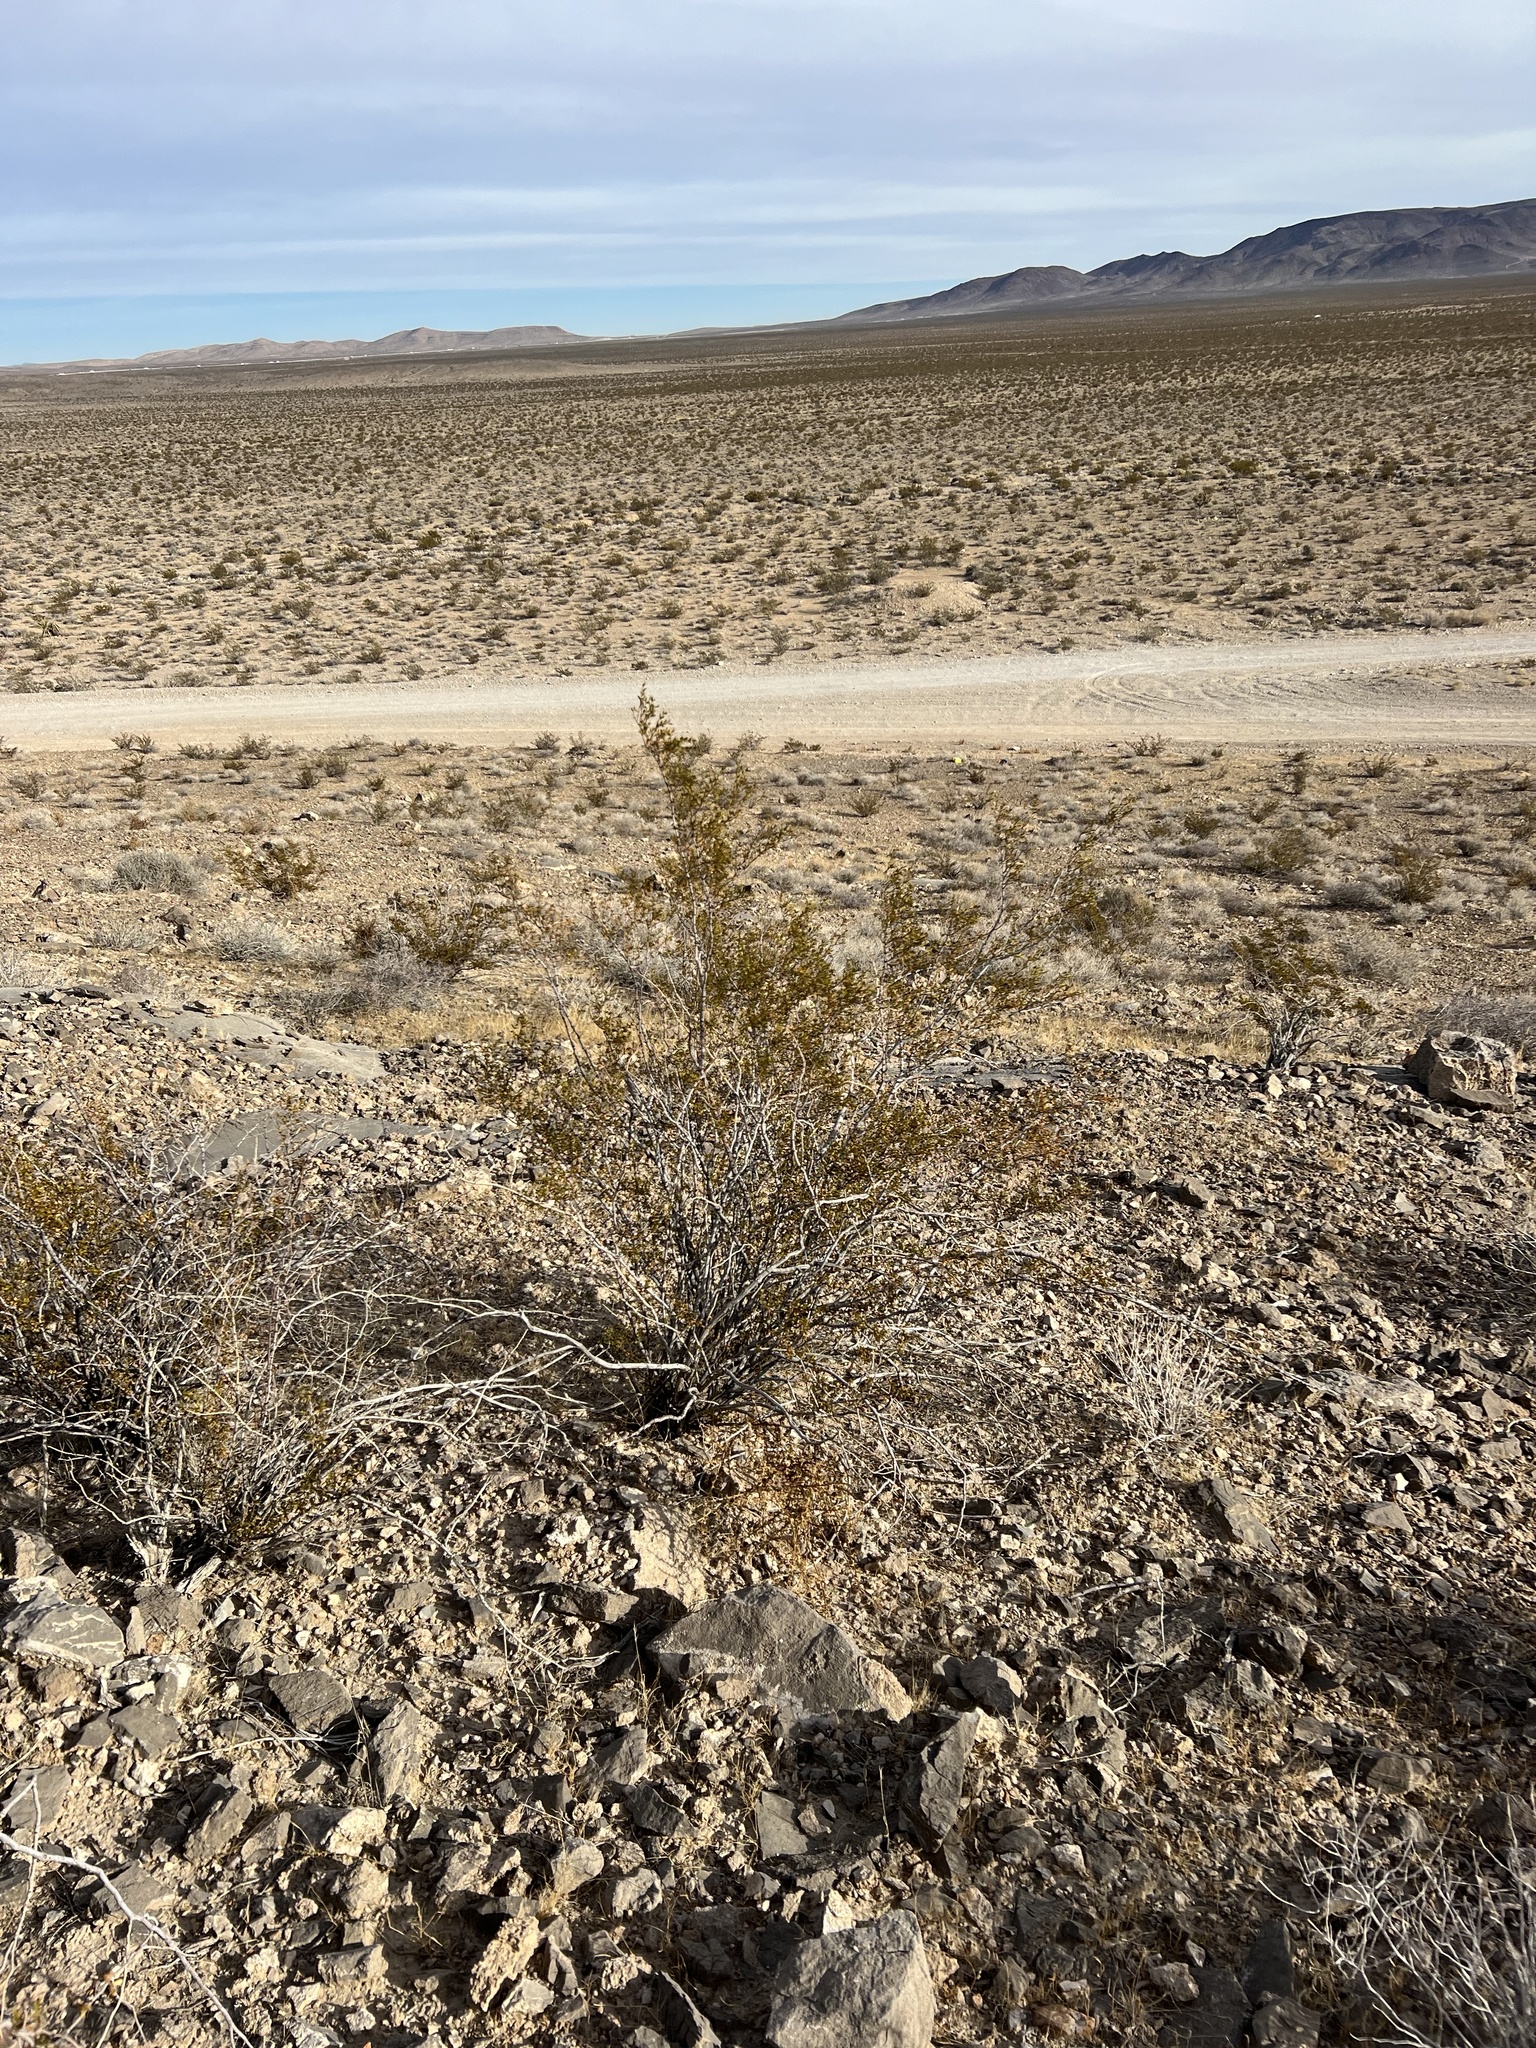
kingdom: Plantae
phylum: Tracheophyta
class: Magnoliopsida
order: Zygophyllales
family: Zygophyllaceae
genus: Larrea
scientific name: Larrea tridentata
